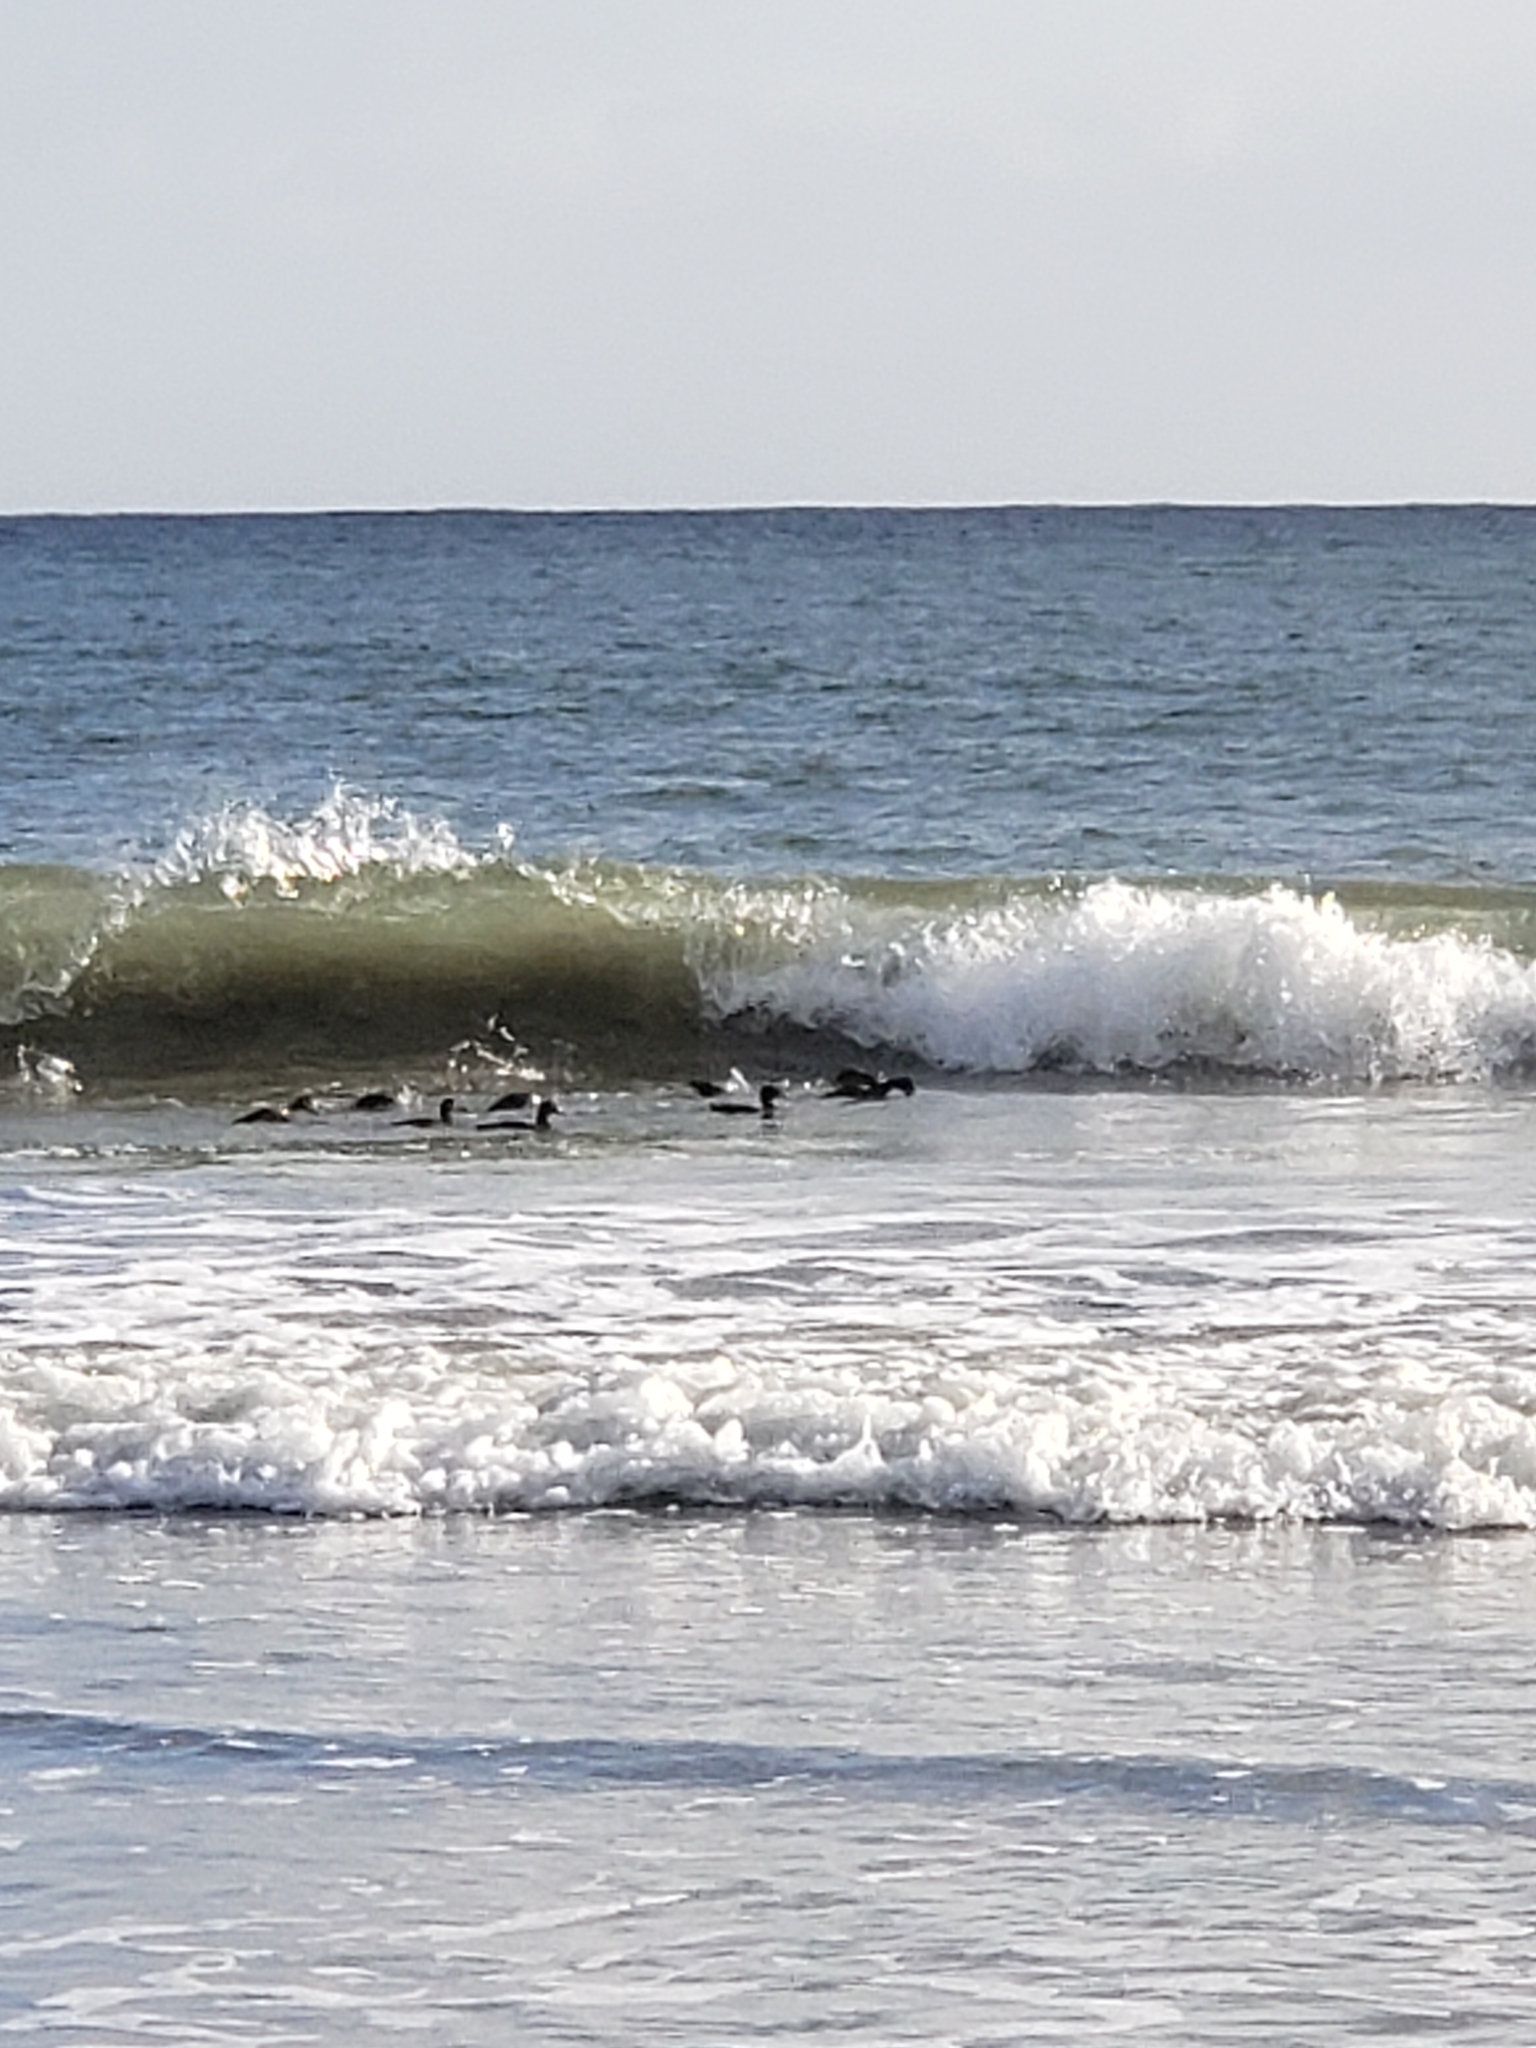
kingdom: Animalia
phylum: Chordata
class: Aves
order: Anseriformes
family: Anatidae
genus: Melanitta
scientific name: Melanitta perspicillata
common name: Surf scoter
